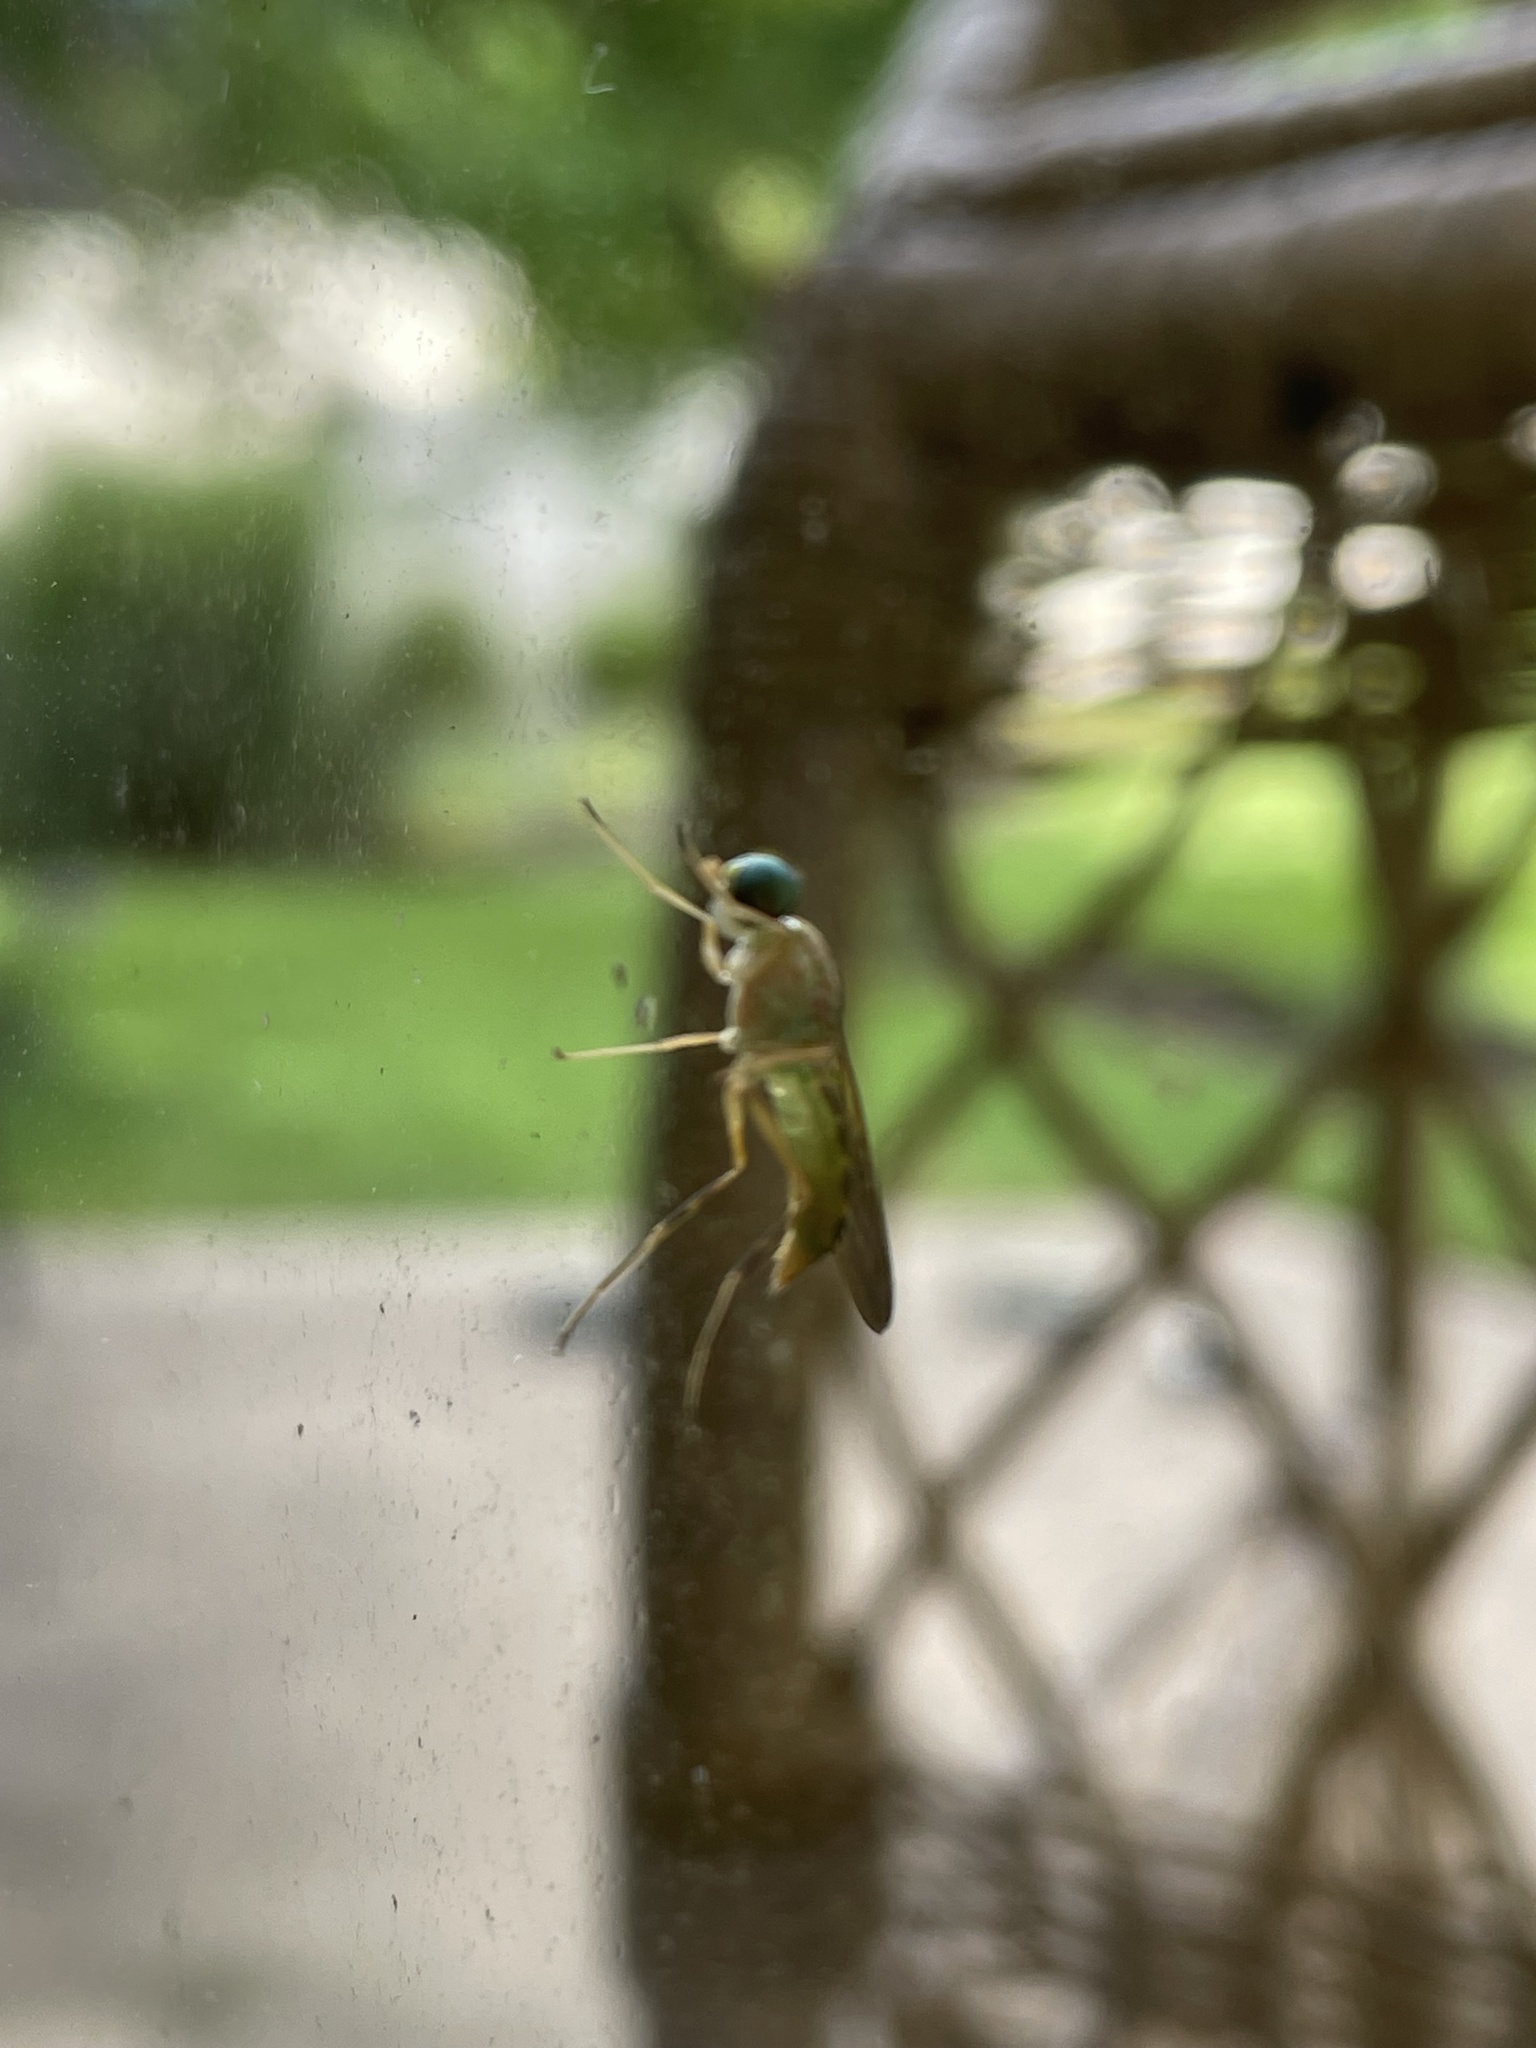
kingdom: Animalia
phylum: Arthropoda
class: Insecta
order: Diptera
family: Stratiomyidae
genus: Ptecticus
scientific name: Ptecticus trivittatus
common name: Compost fly
